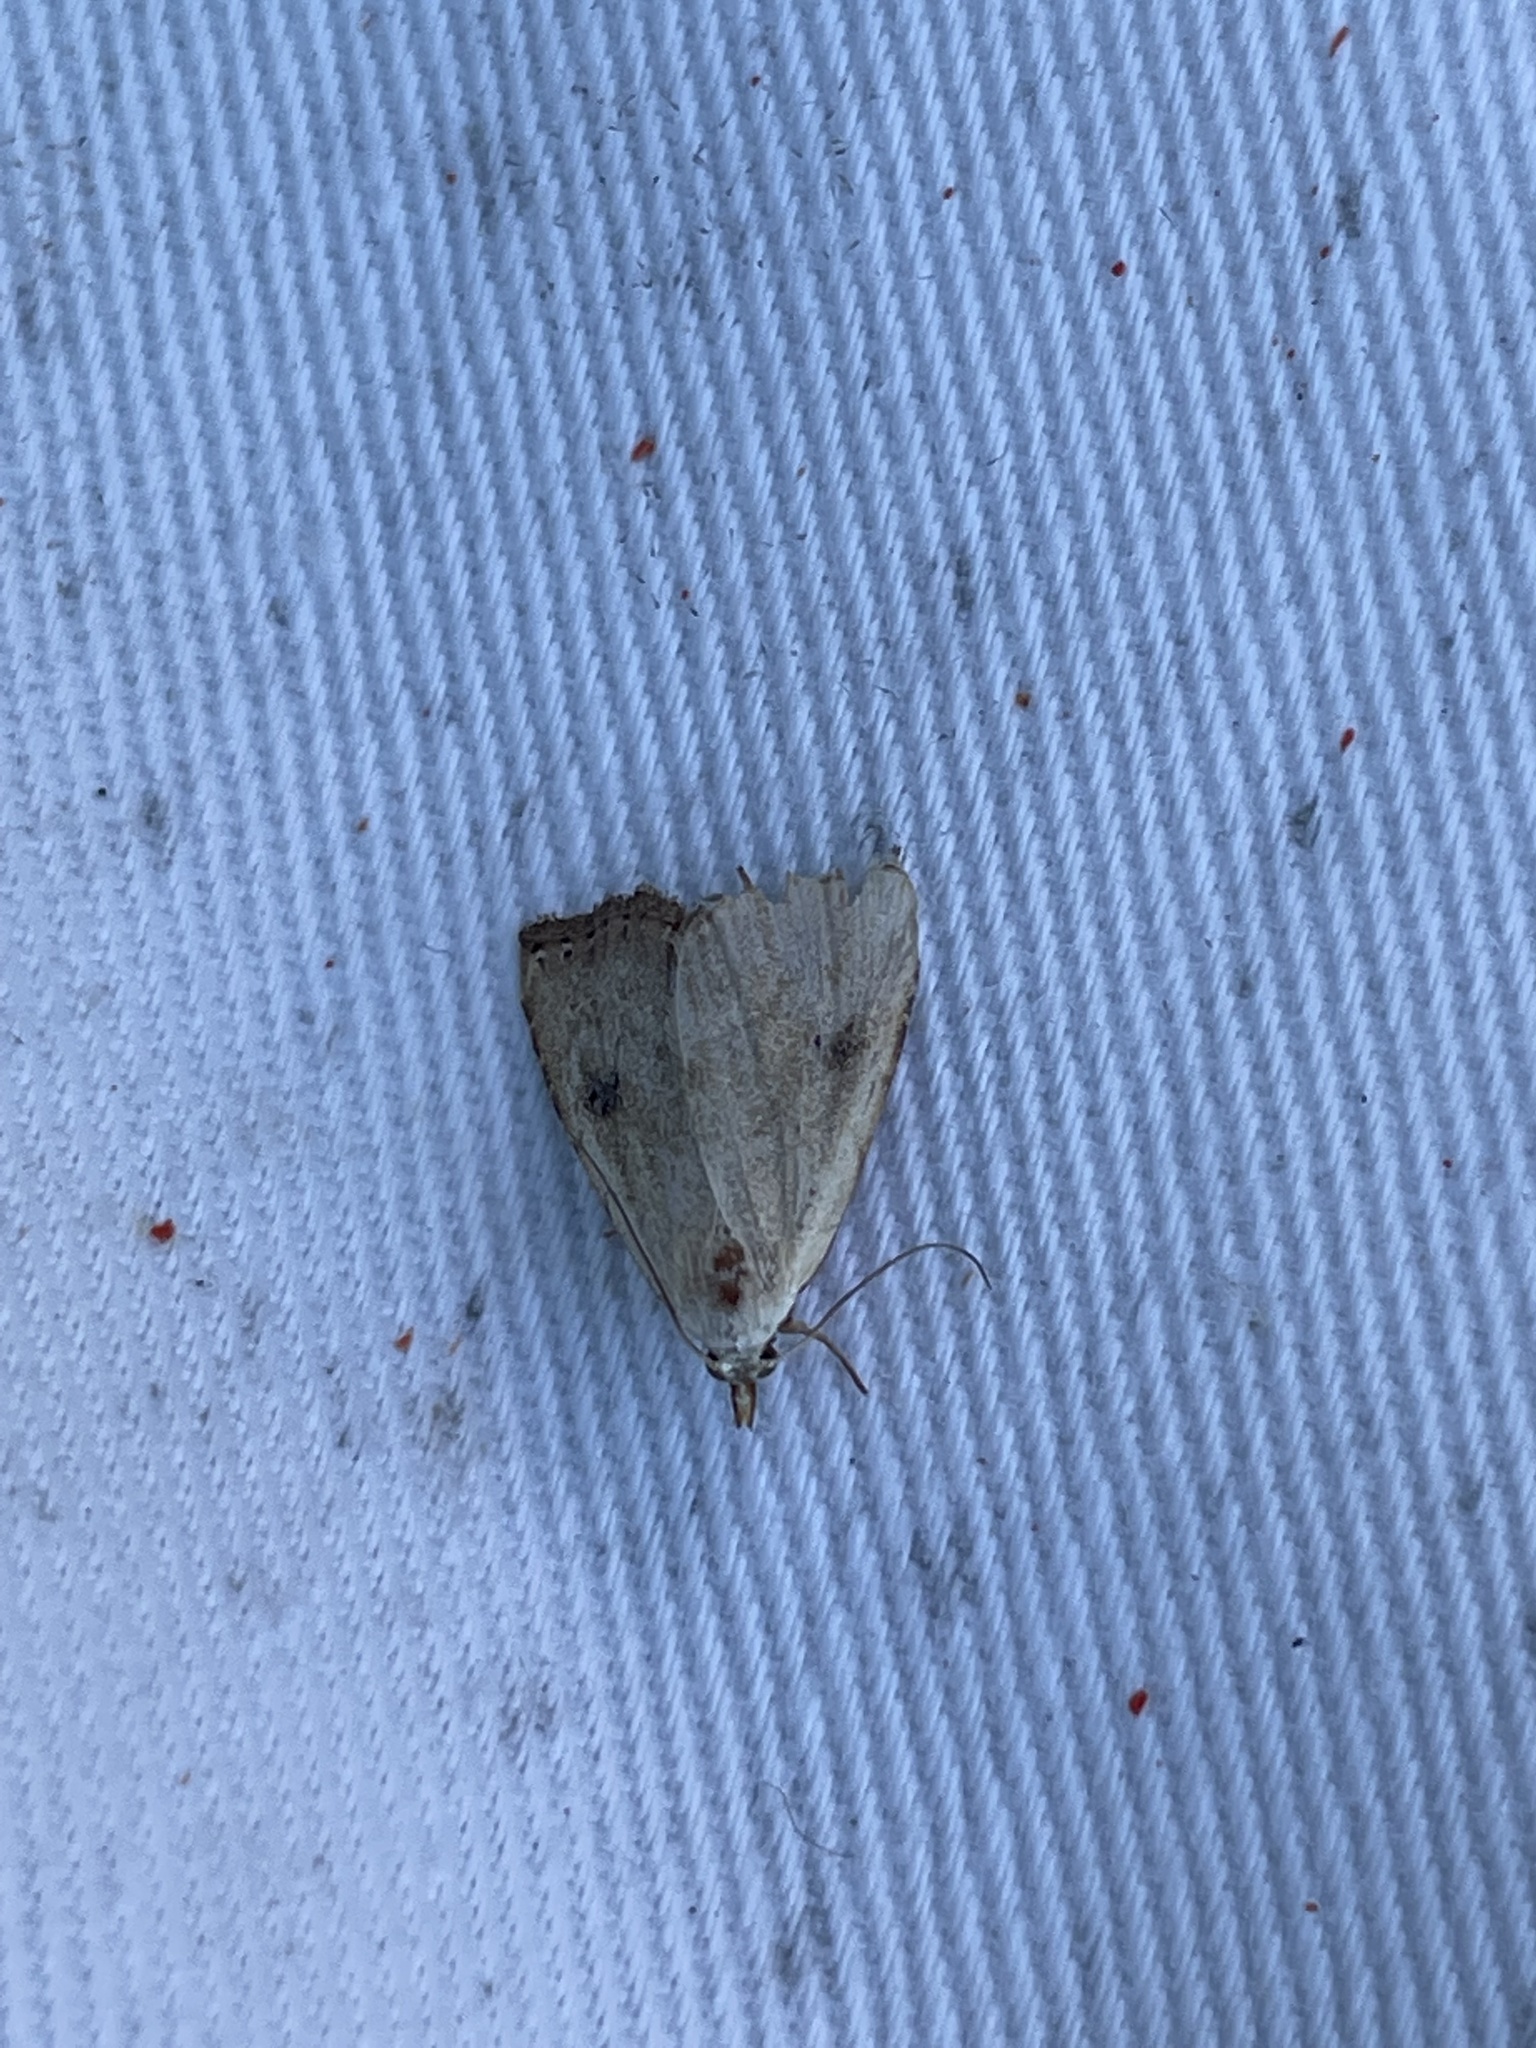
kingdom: Animalia
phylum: Arthropoda
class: Insecta
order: Lepidoptera
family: Erebidae
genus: Rivula
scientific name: Rivula sericealis
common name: Straw dot
